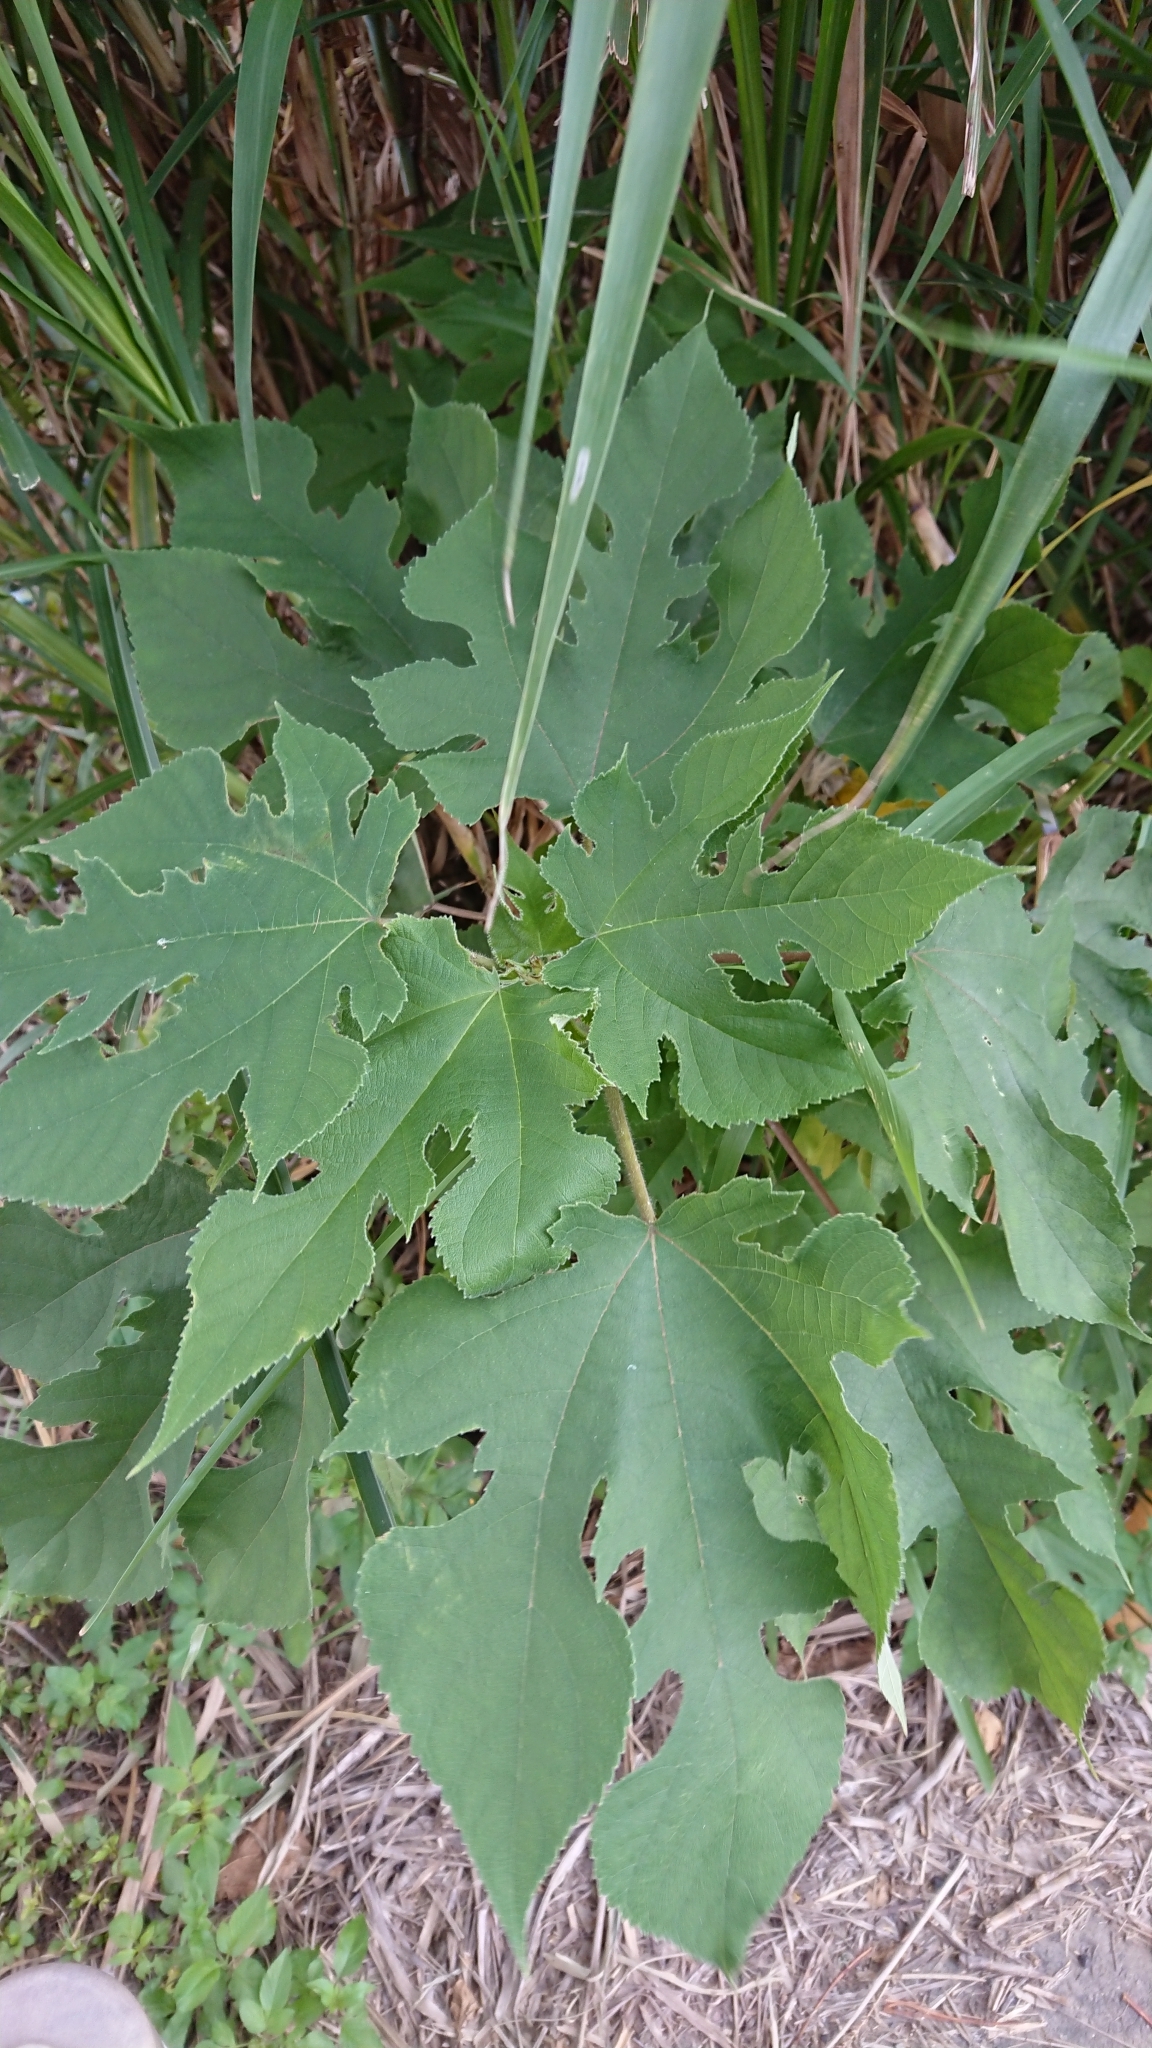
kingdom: Plantae
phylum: Tracheophyta
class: Magnoliopsida
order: Rosales
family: Moraceae
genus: Broussonetia
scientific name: Broussonetia papyrifera
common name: Paper mulberry
